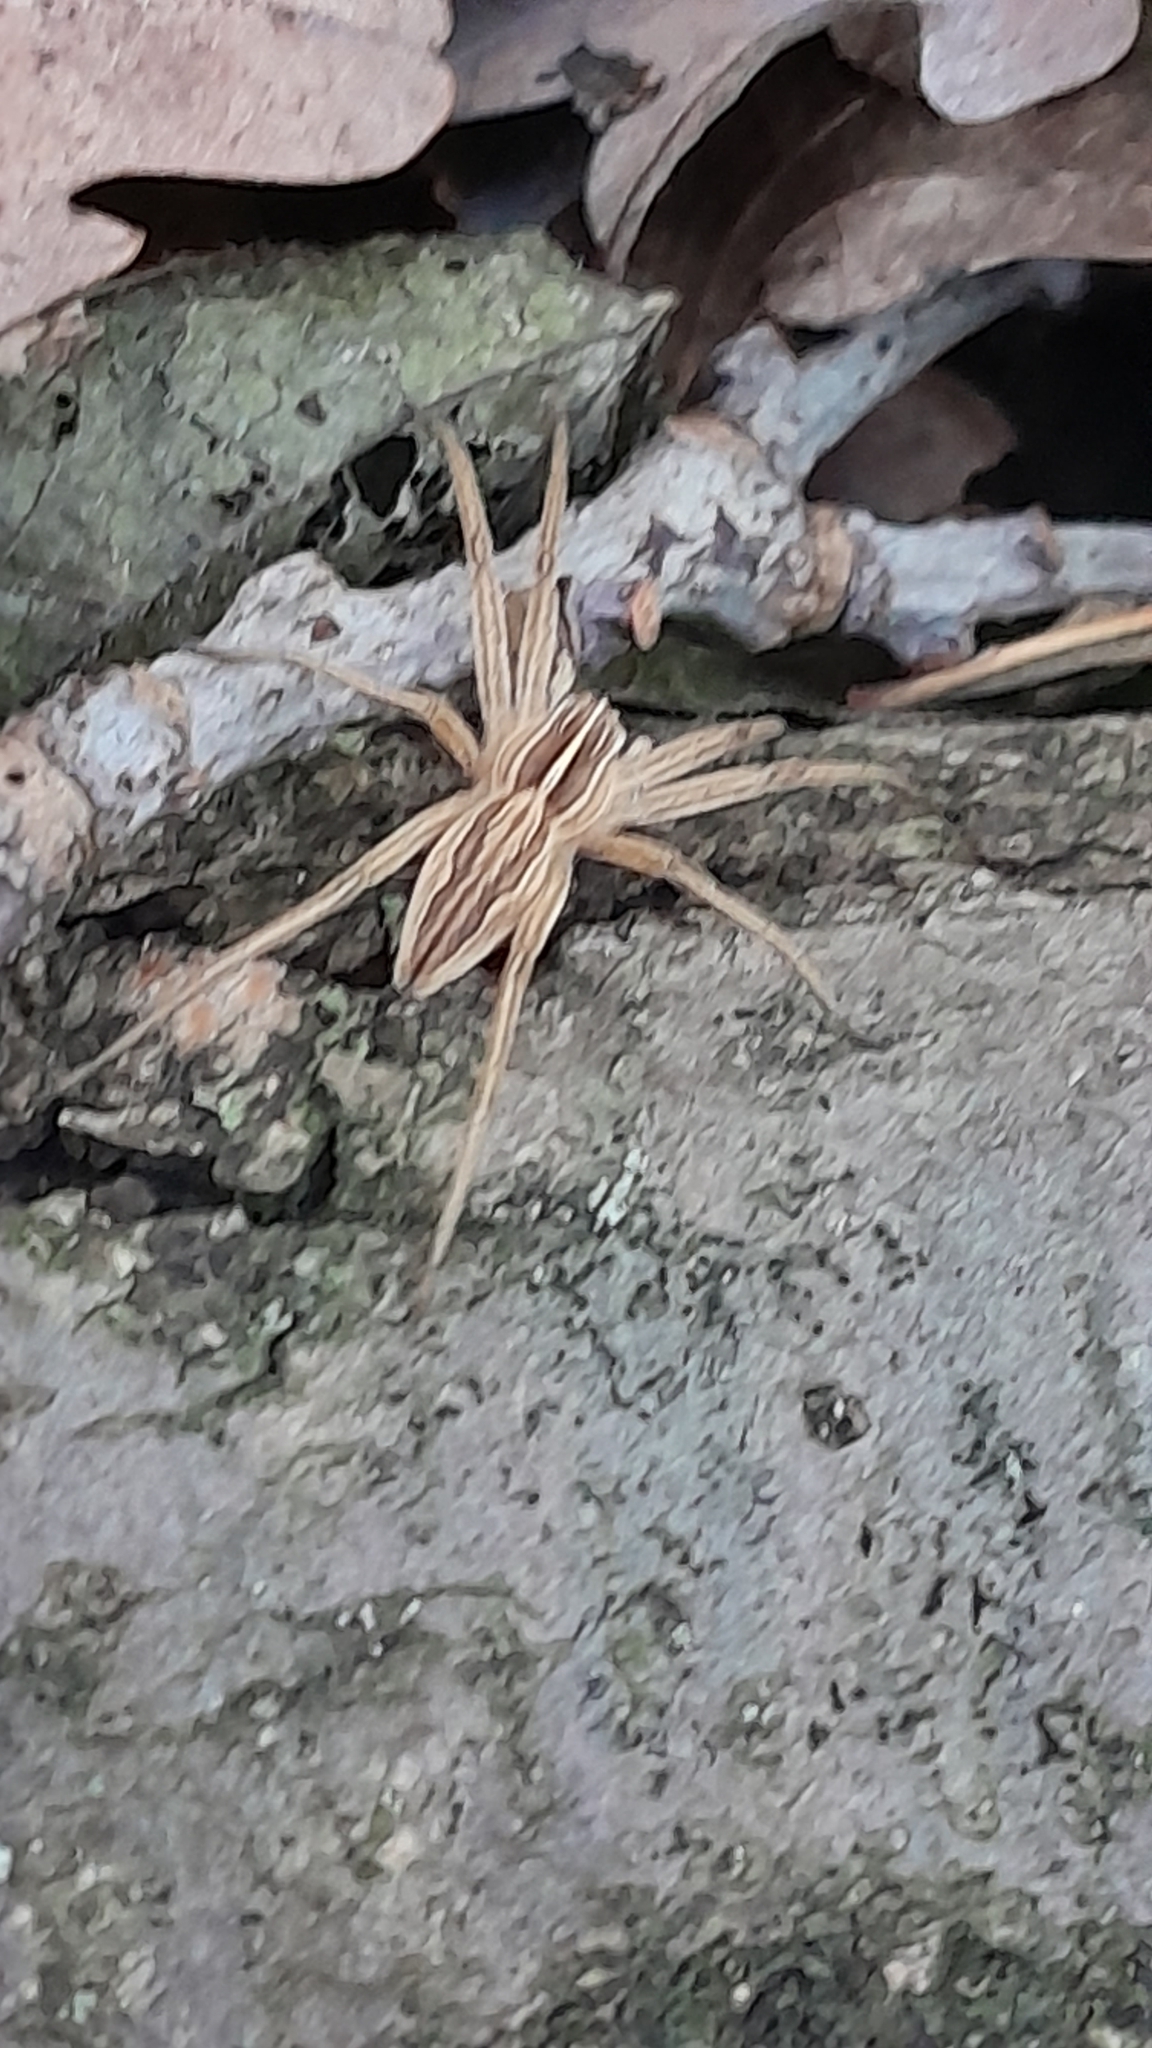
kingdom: Animalia
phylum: Arthropoda
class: Arachnida
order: Araneae
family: Pisauridae
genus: Pisaura
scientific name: Pisaura mirabilis
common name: Tent spider
